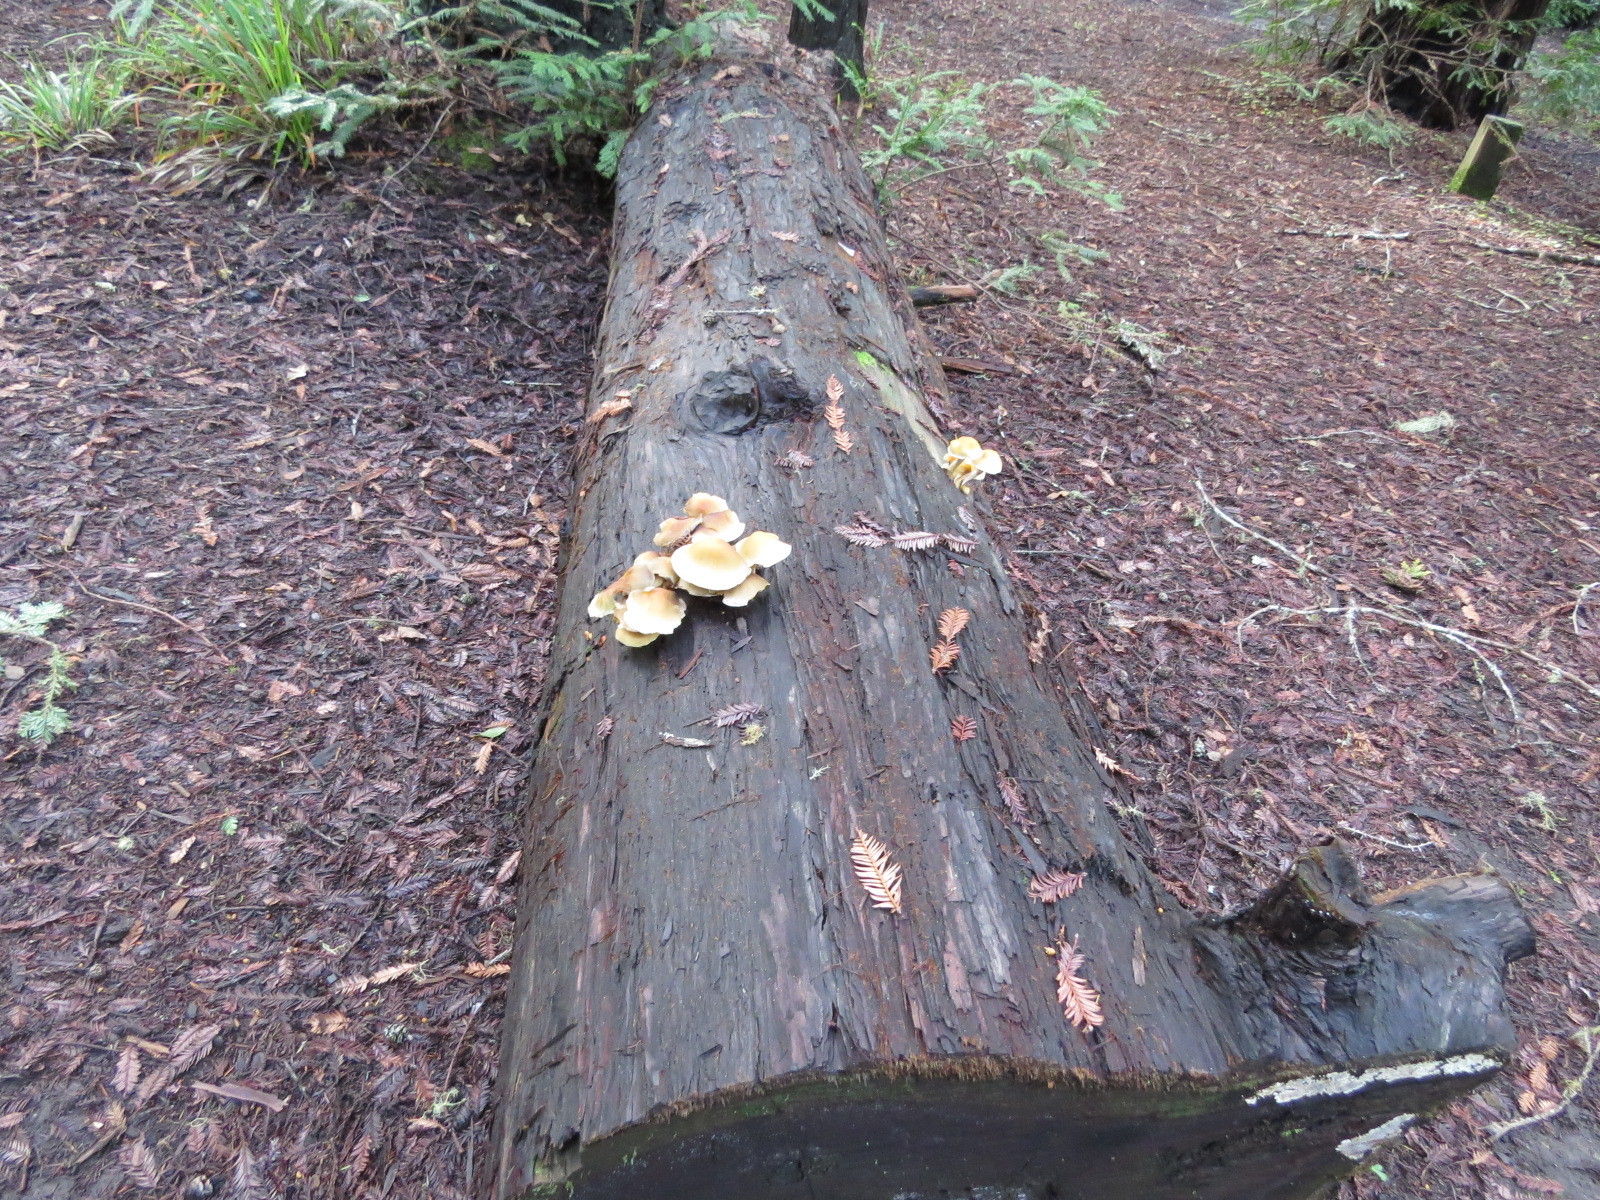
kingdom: Fungi
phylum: Basidiomycota
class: Agaricomycetes
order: Agaricales
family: Strophariaceae
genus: Hypholoma
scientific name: Hypholoma capnoides
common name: Conifer tuft
